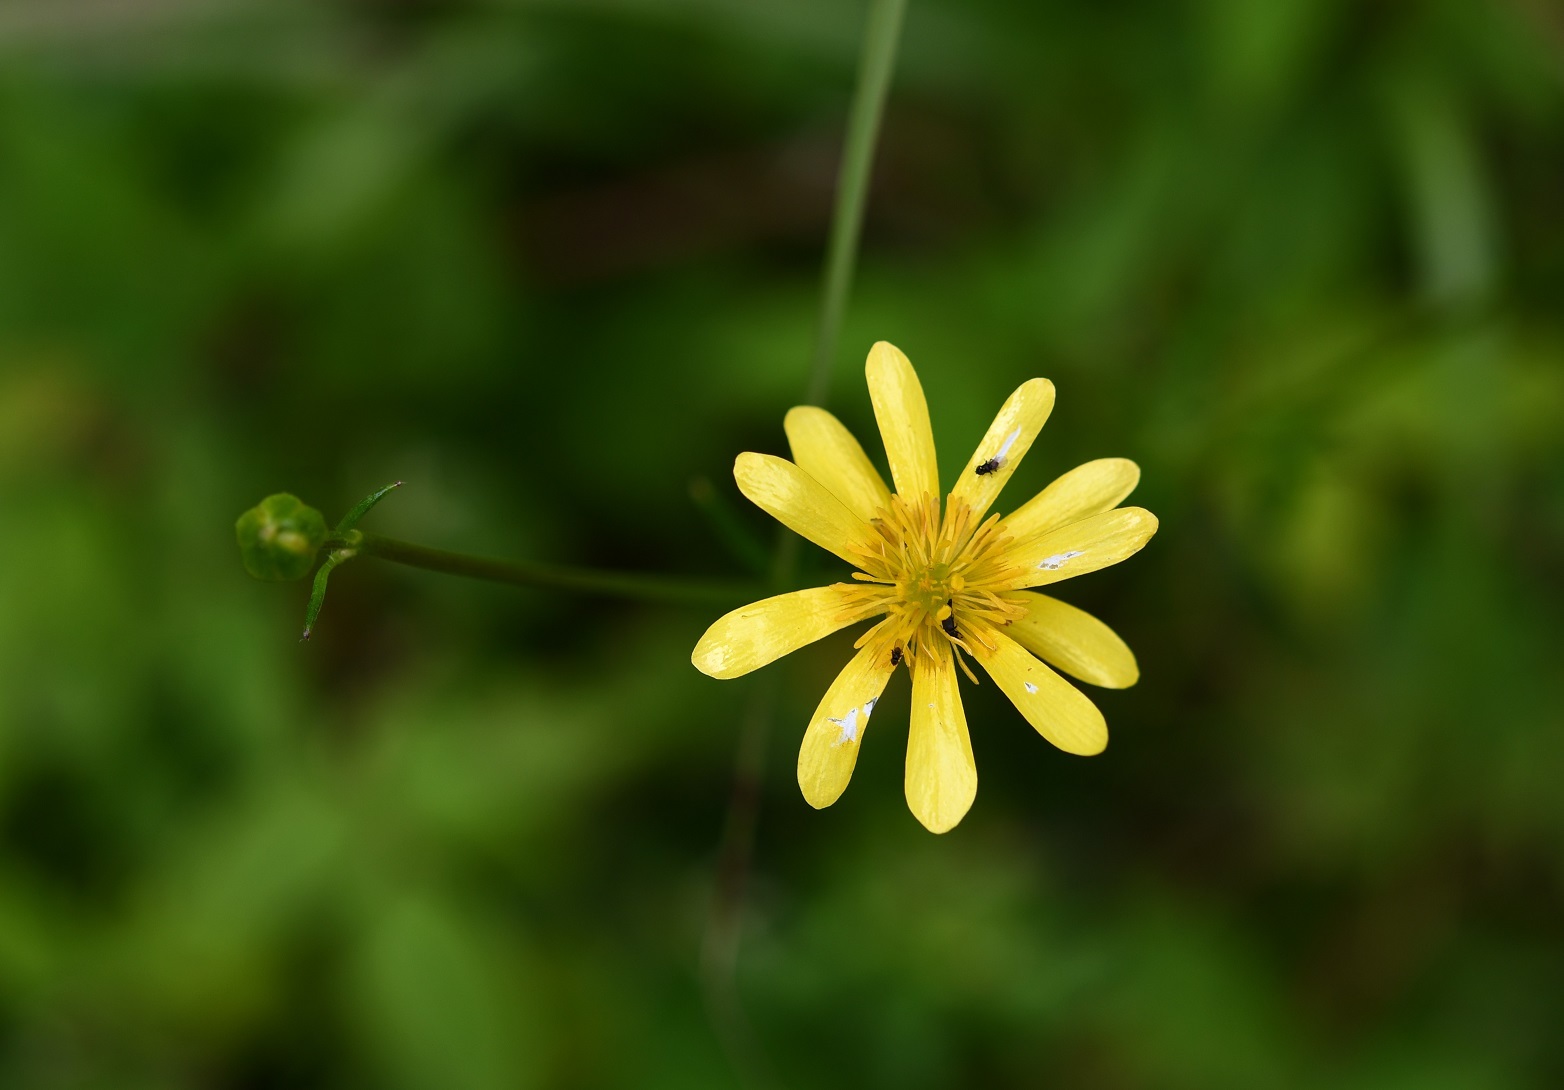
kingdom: Plantae
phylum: Tracheophyta
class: Magnoliopsida
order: Ranunculales
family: Ranunculaceae
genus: Ranunculus
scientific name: Ranunculus petiolaris
